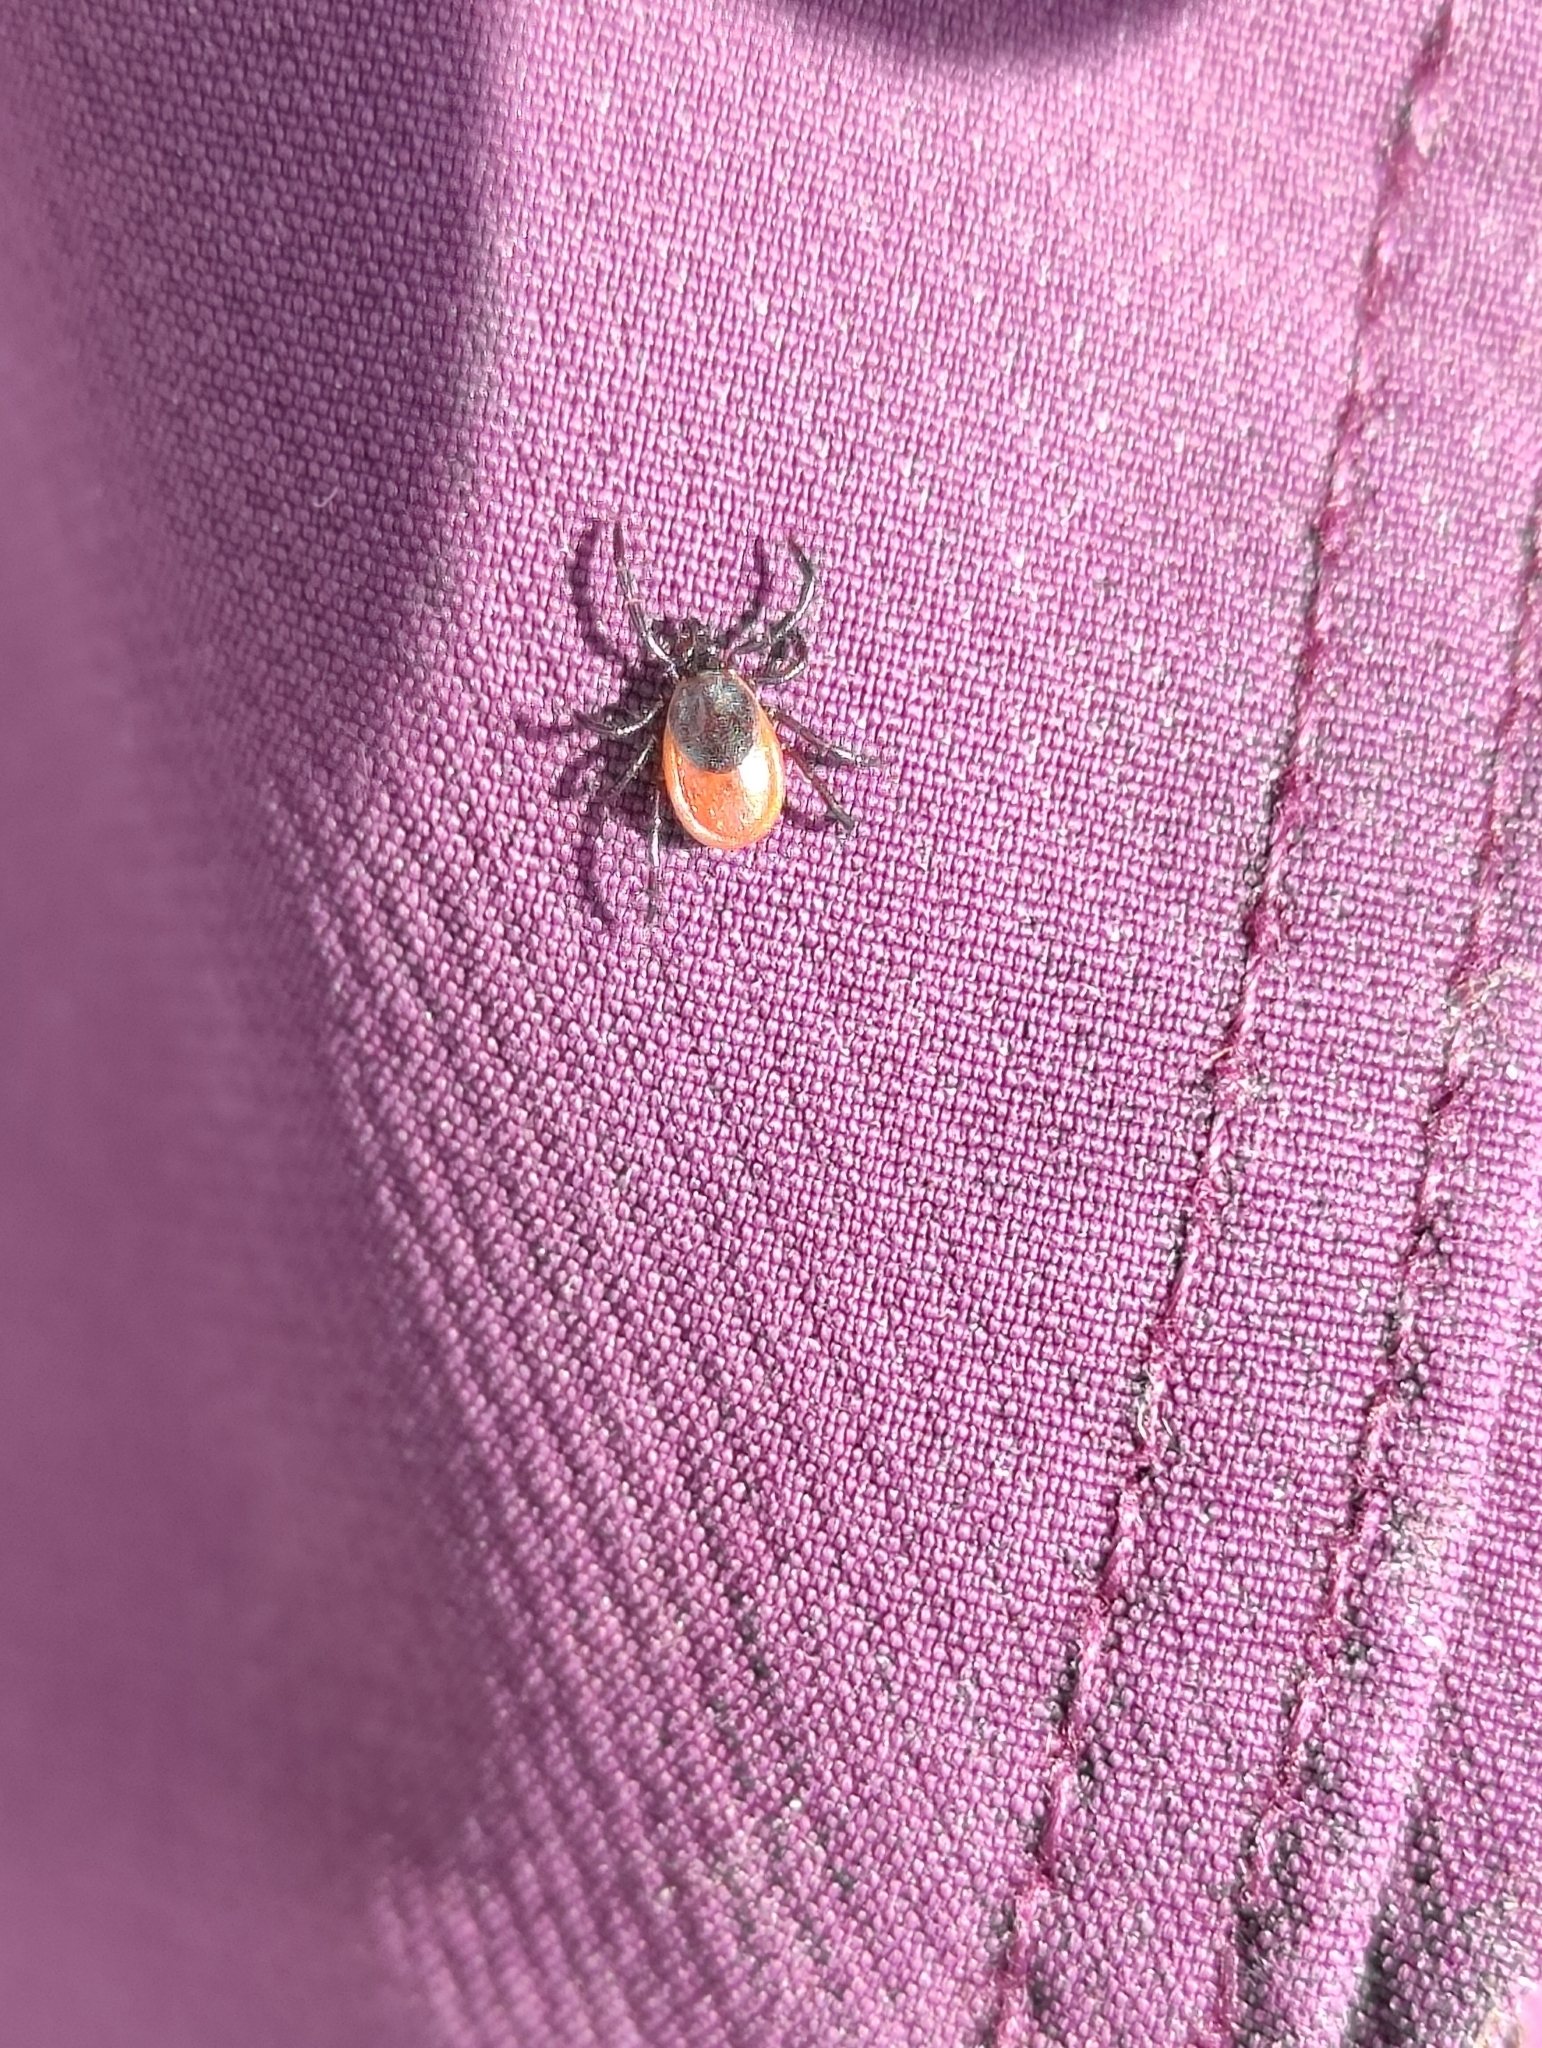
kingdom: Animalia
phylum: Arthropoda
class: Arachnida
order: Ixodida
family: Ixodidae
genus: Ixodes
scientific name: Ixodes persulcatus
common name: Taiga tick
